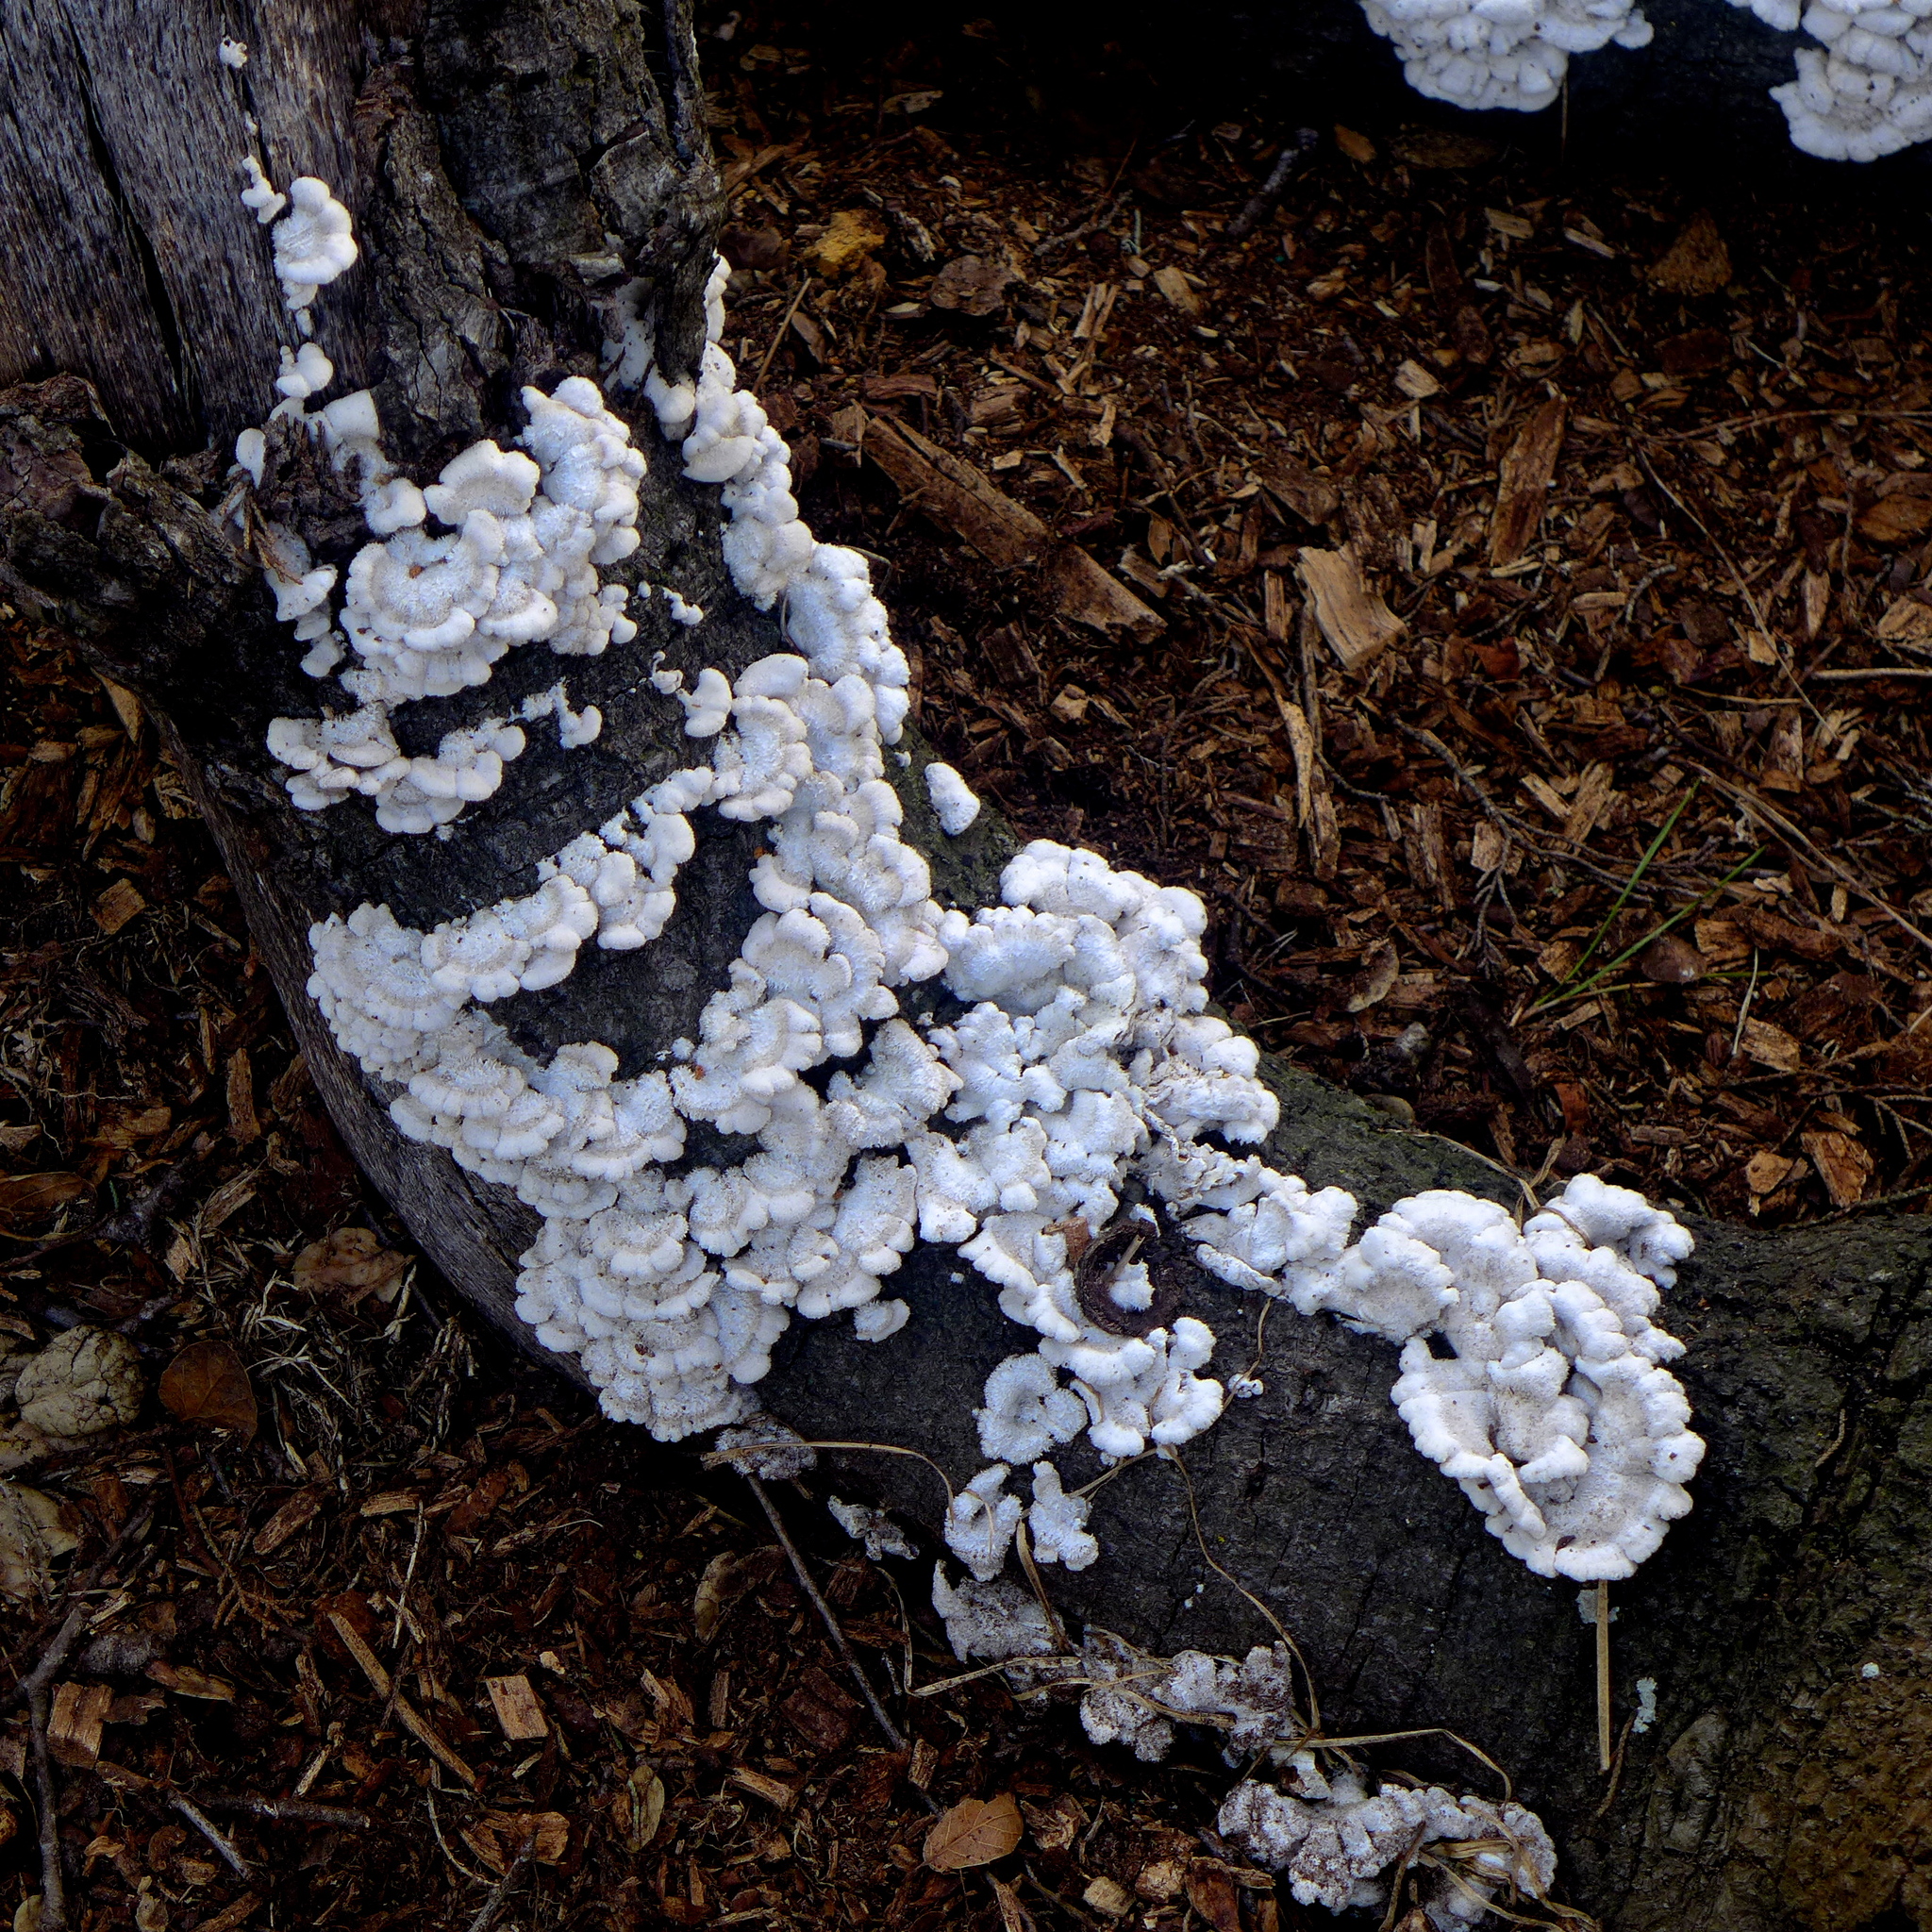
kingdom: Fungi
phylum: Basidiomycota
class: Agaricomycetes
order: Agaricales
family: Schizophyllaceae
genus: Schizophyllum
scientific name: Schizophyllum commune
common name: Common porecrust
